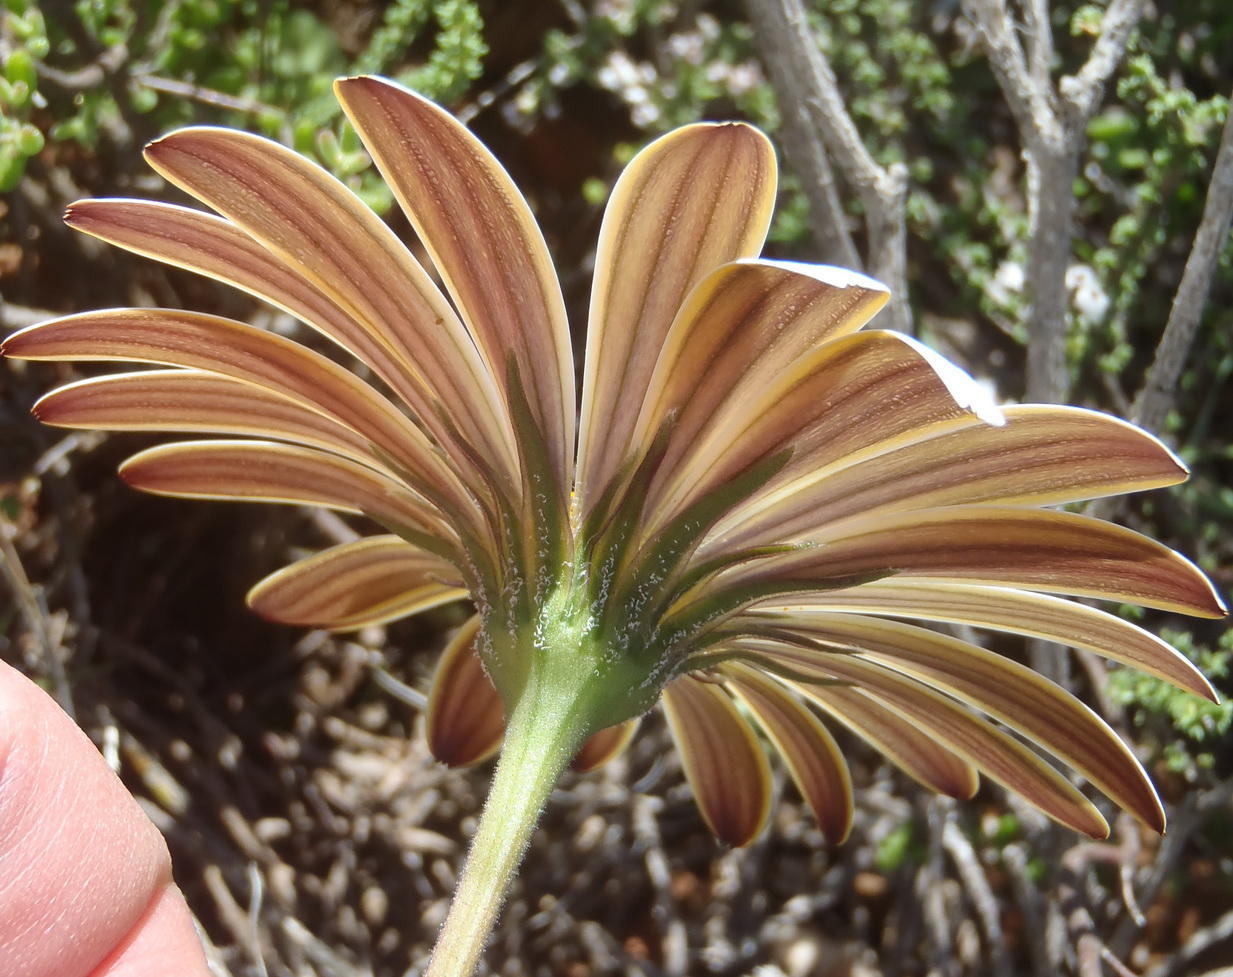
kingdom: Plantae
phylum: Tracheophyta
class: Magnoliopsida
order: Asterales
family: Asteraceae
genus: Dimorphotheca
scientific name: Dimorphotheca nudicaulis
